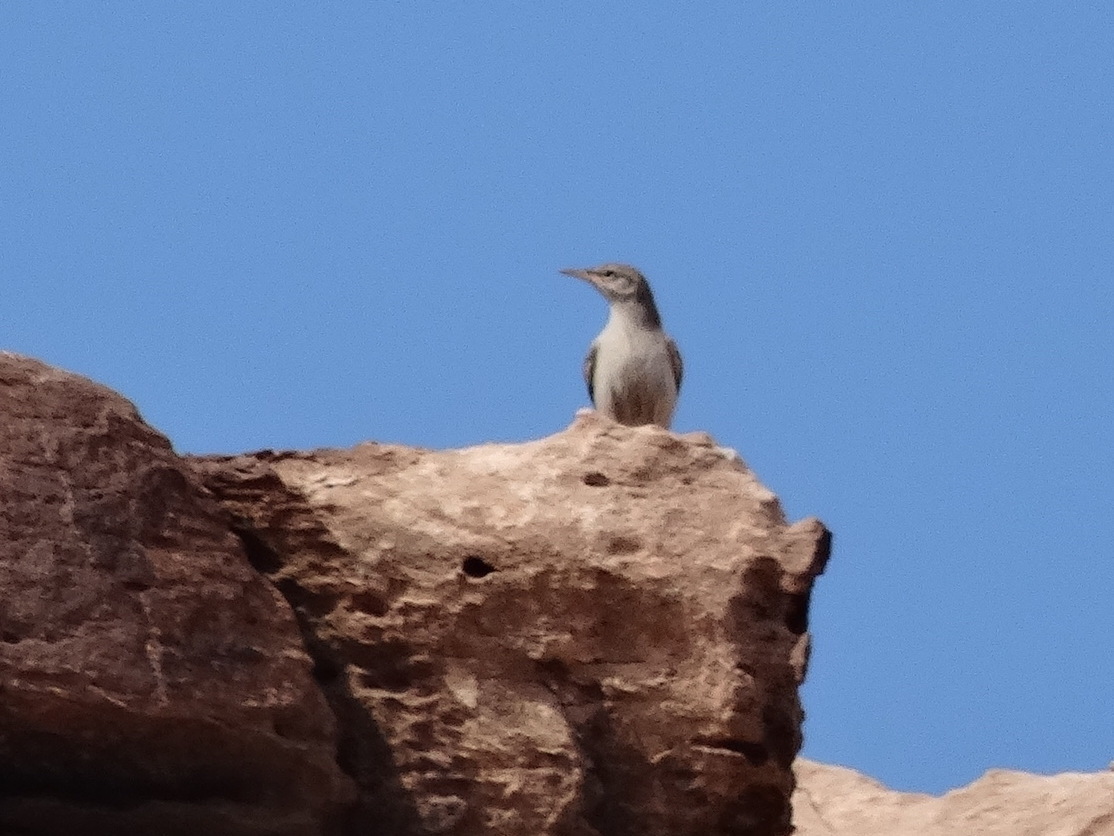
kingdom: Animalia
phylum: Chordata
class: Aves
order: Passeriformes
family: Troglodytidae
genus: Salpinctes
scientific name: Salpinctes obsoletus
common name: Rock wren
